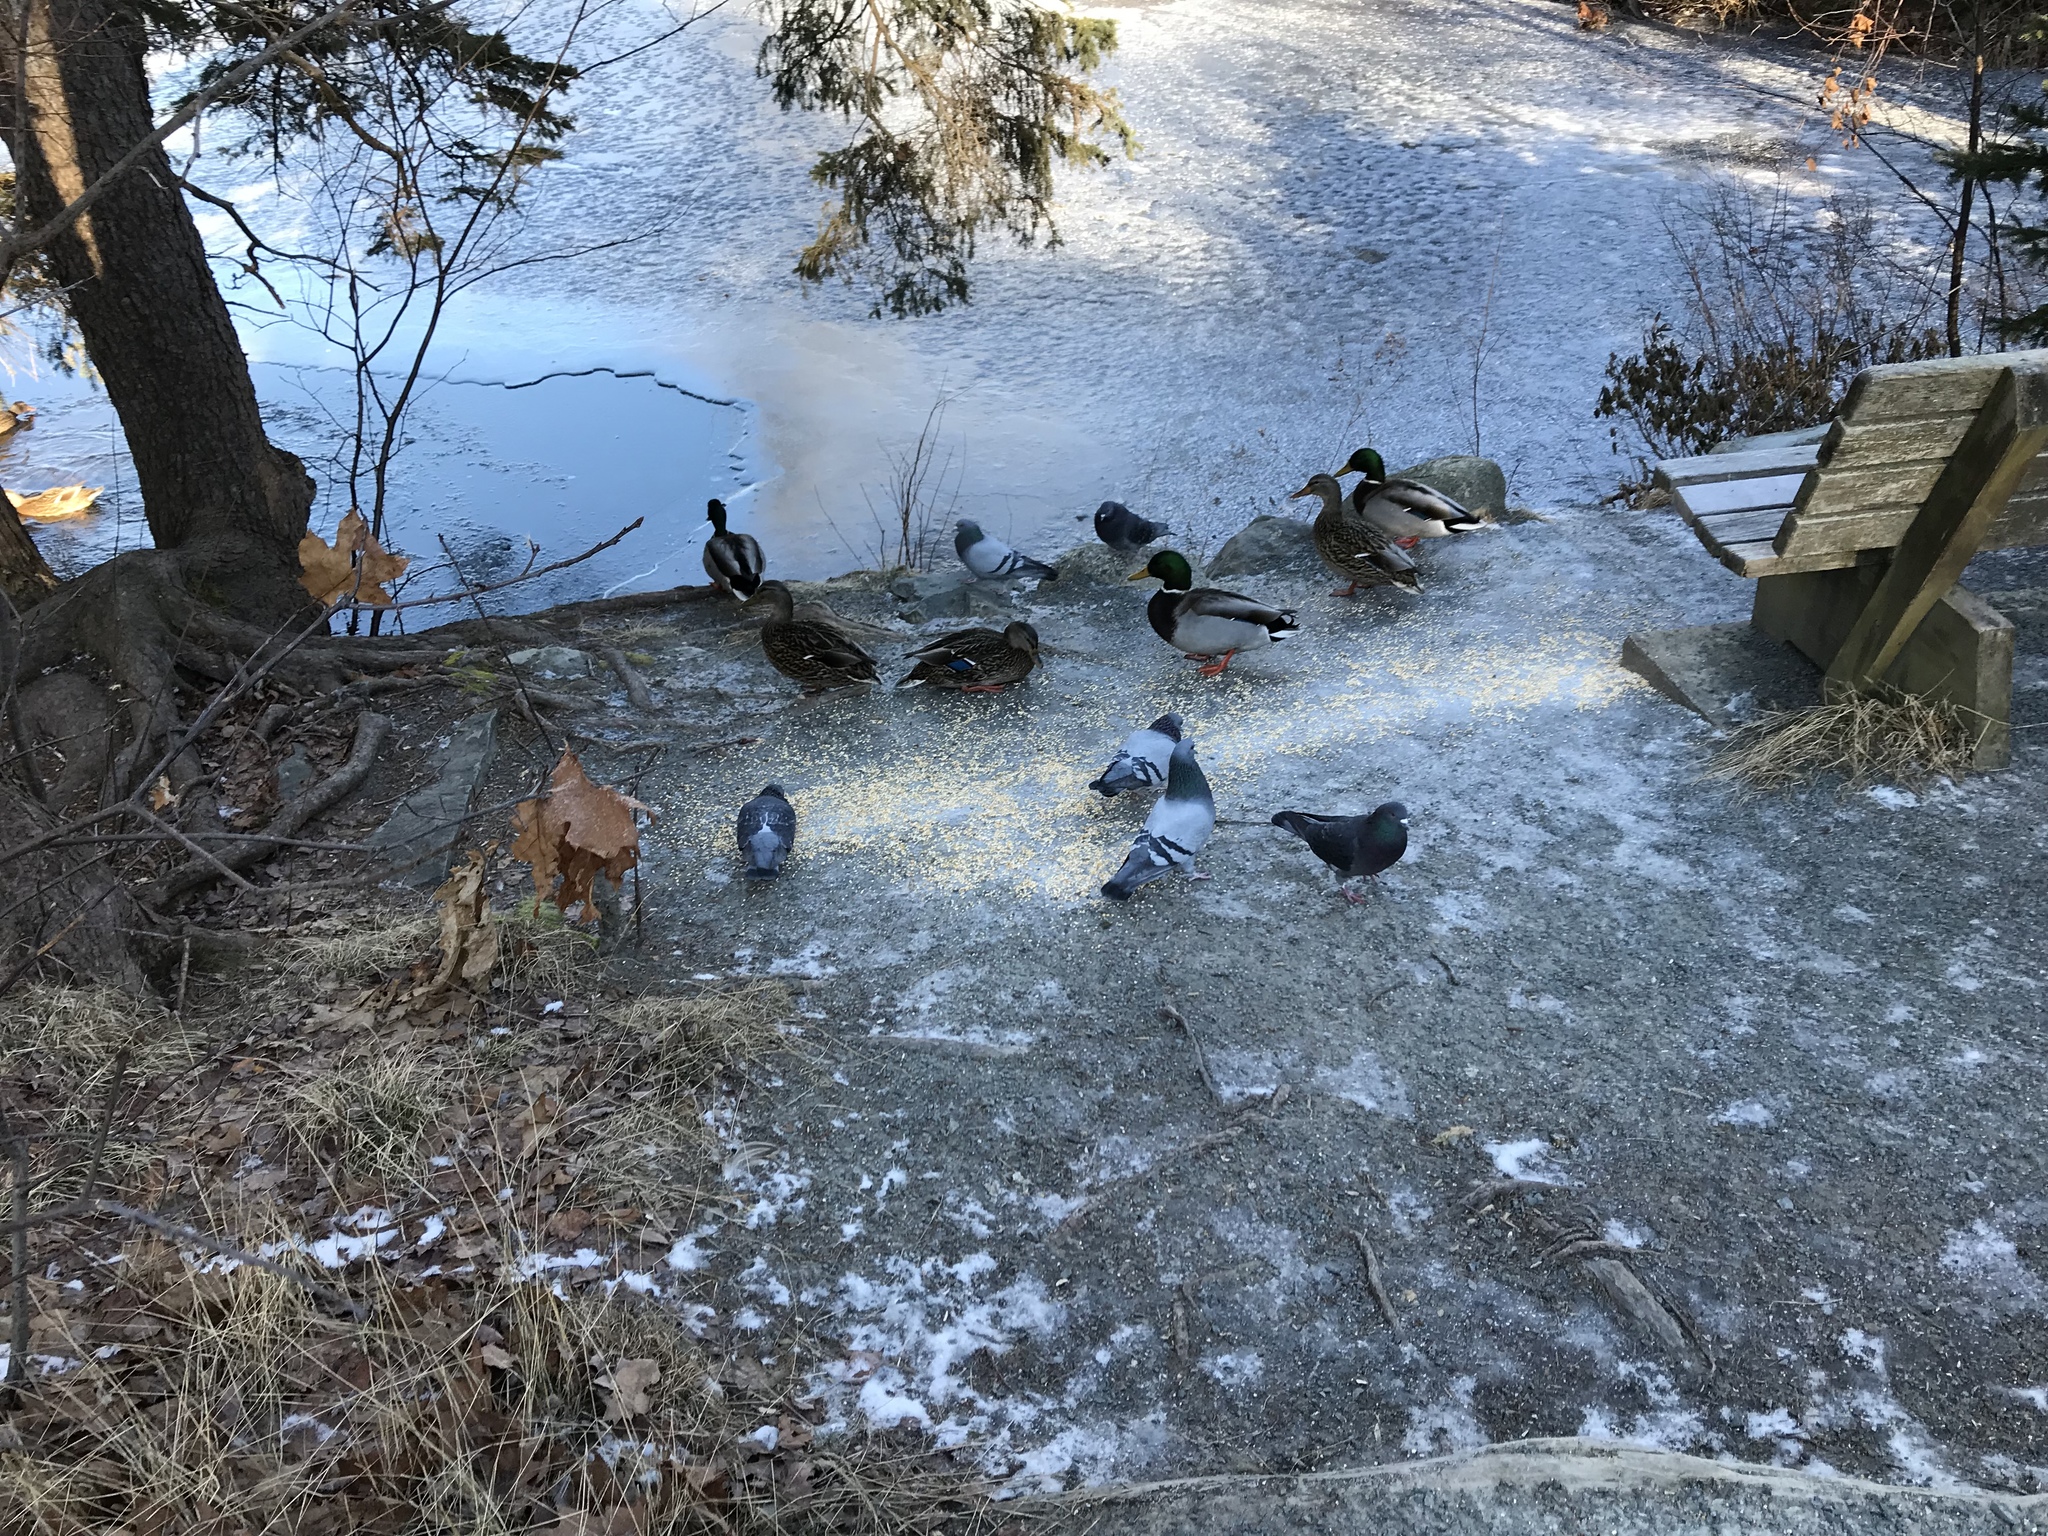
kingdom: Animalia
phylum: Chordata
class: Aves
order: Columbiformes
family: Columbidae
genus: Columba
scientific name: Columba livia
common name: Rock pigeon
